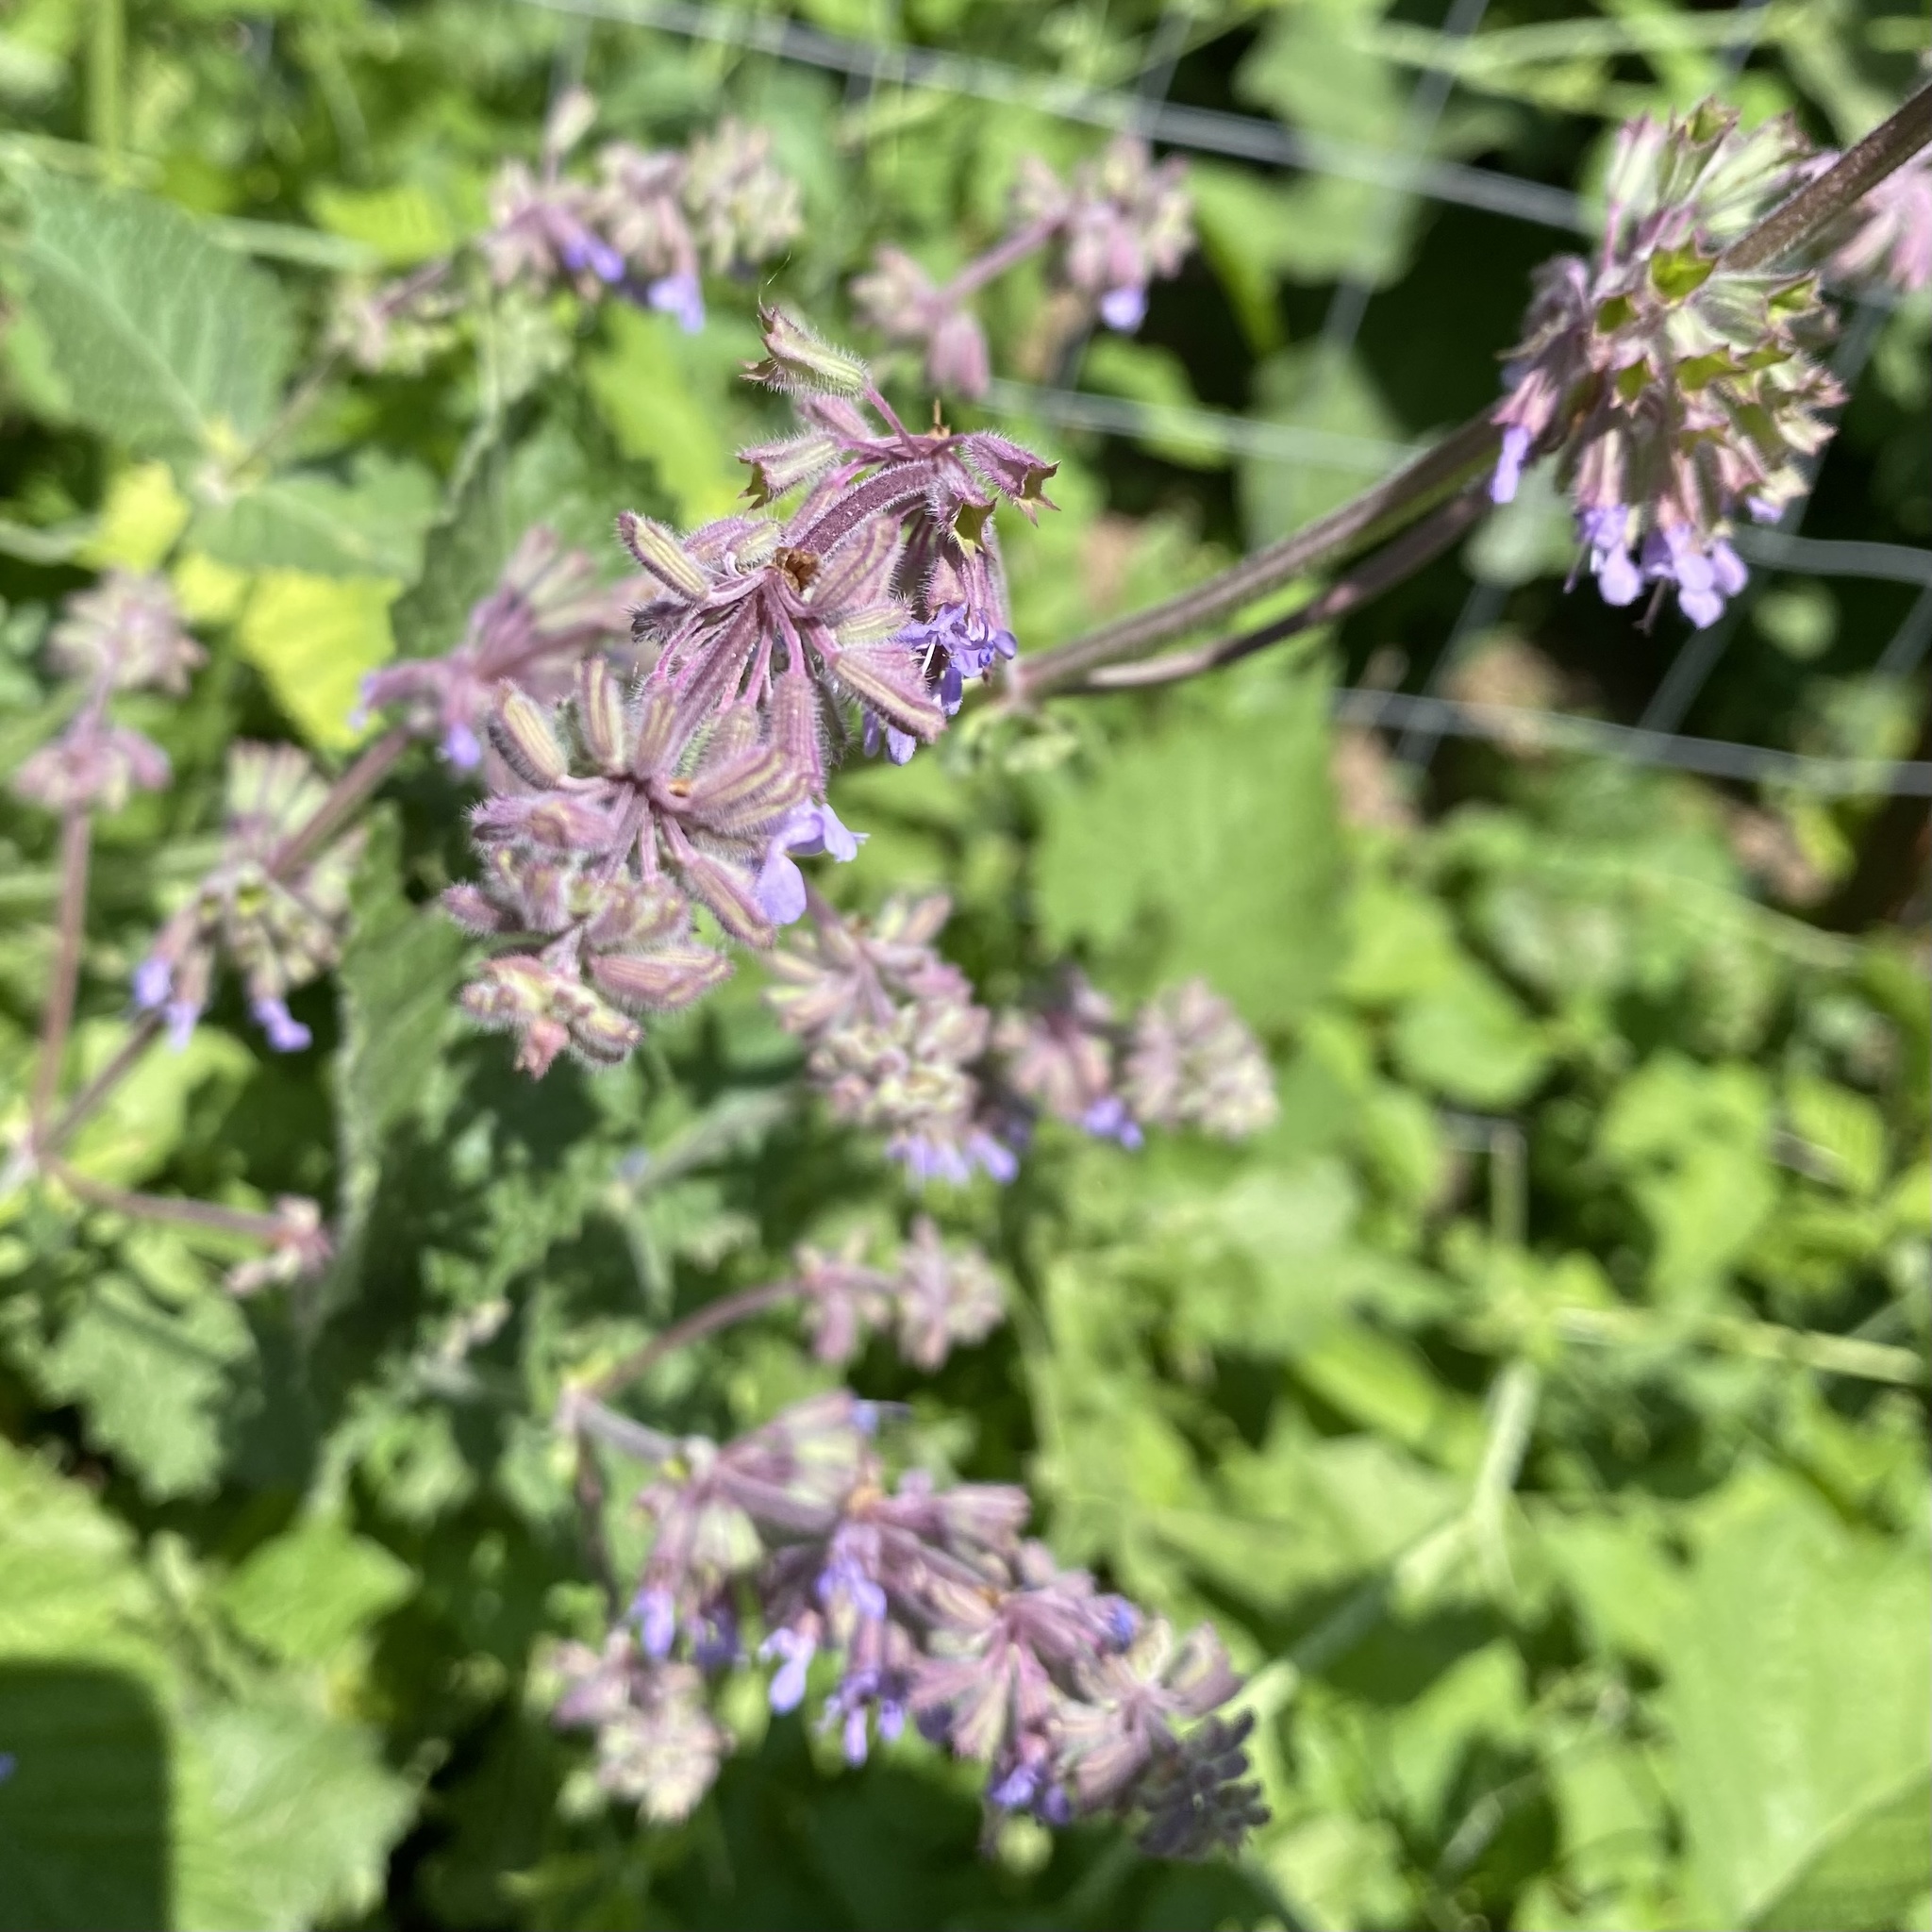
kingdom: Plantae
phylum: Tracheophyta
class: Magnoliopsida
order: Lamiales
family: Lamiaceae
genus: Salvia
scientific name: Salvia verticillata
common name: Whorled clary
